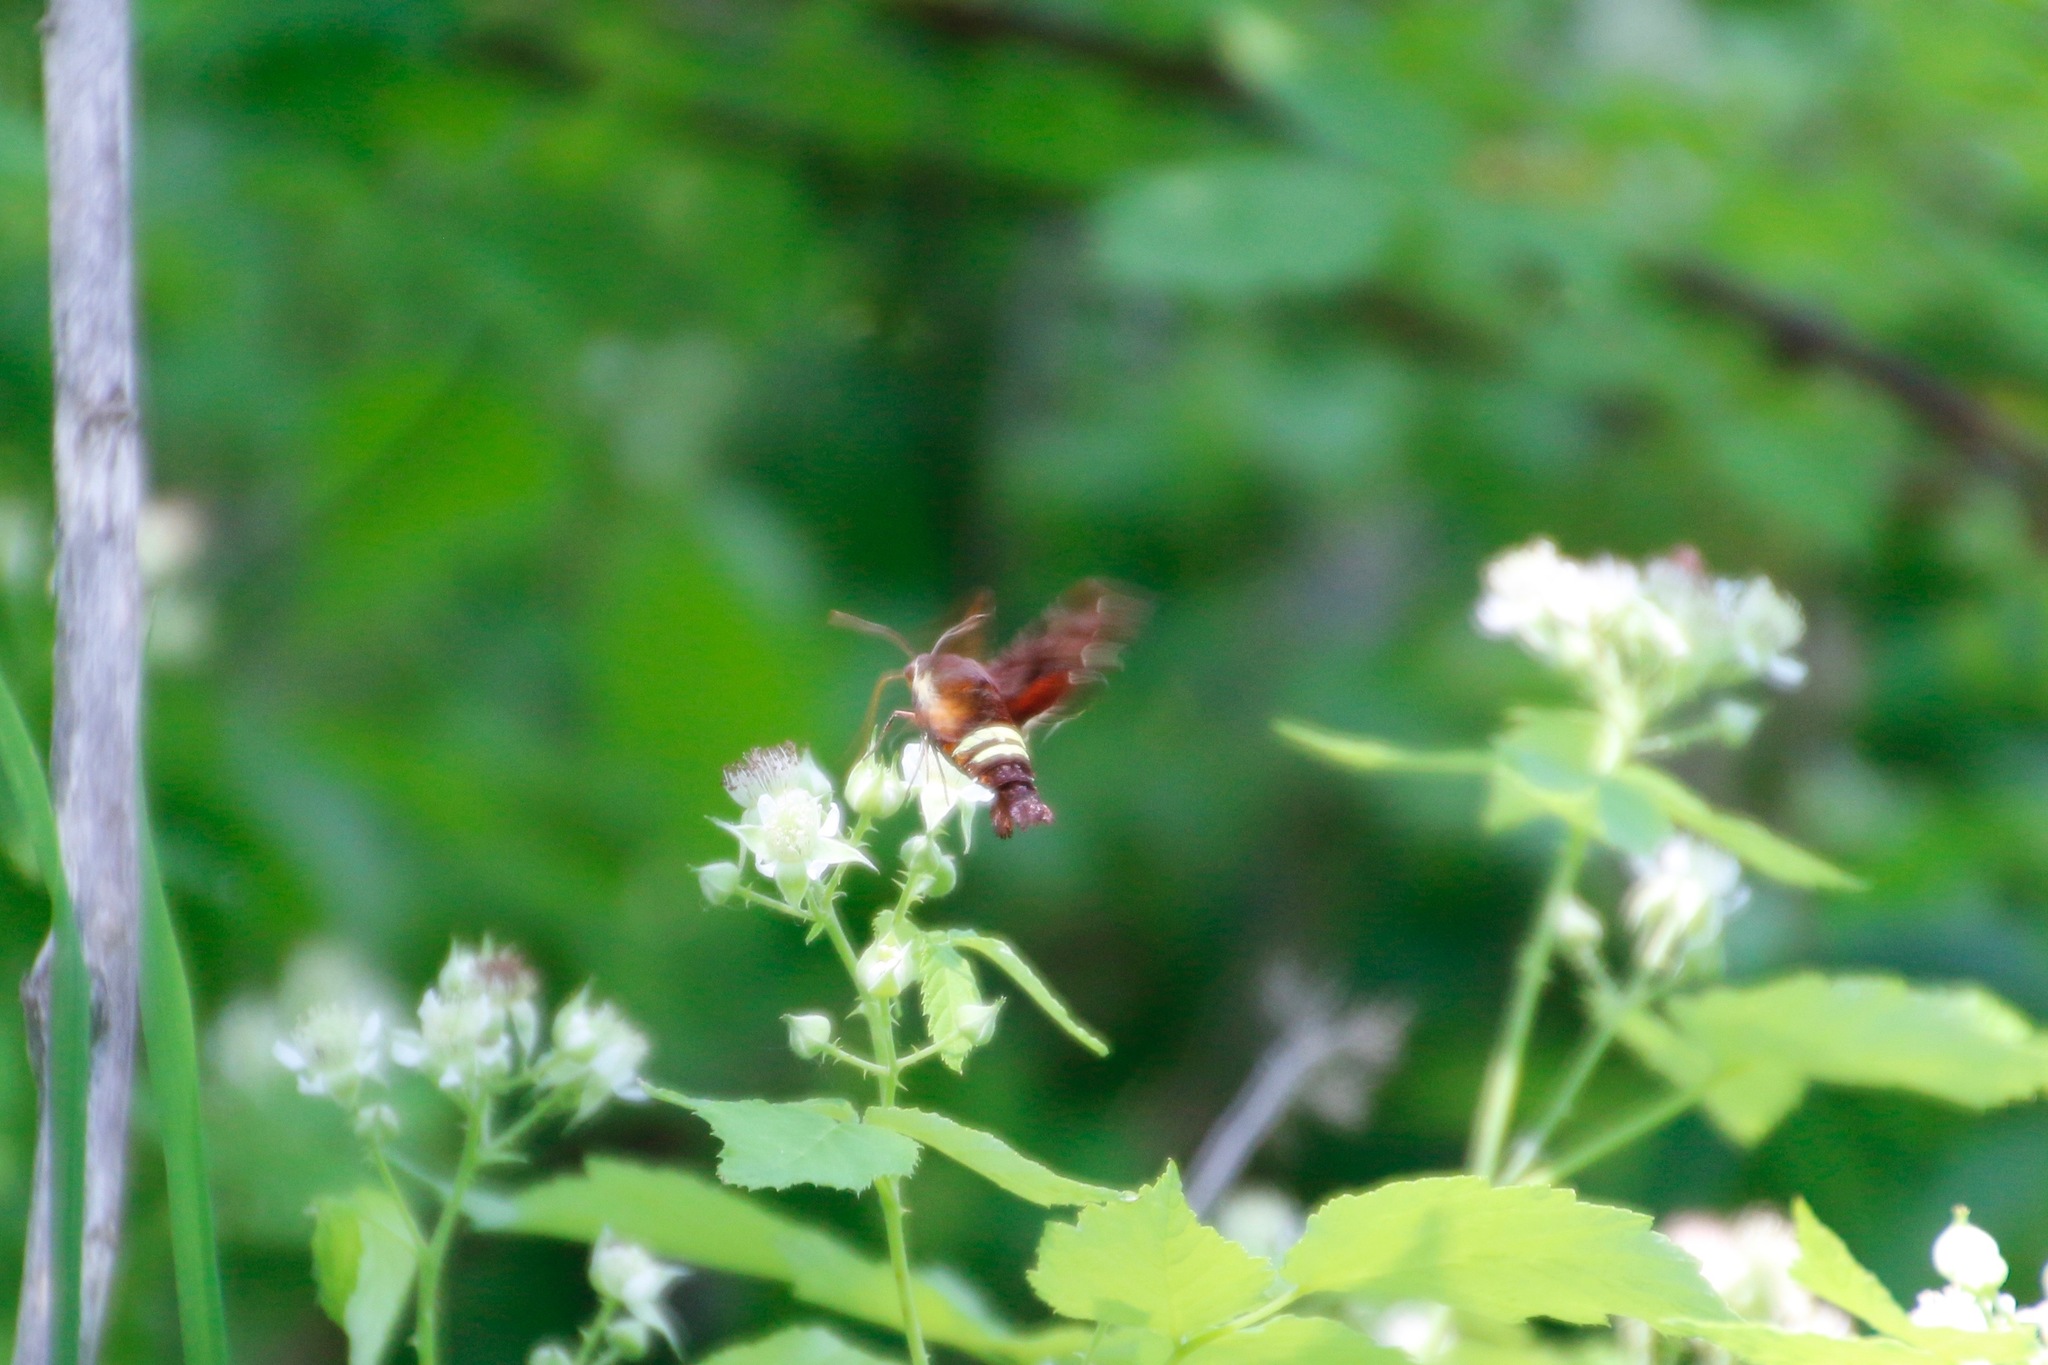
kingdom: Animalia
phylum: Arthropoda
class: Insecta
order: Lepidoptera
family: Sphingidae
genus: Amphion
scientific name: Amphion floridensis
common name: Nessus sphinx
